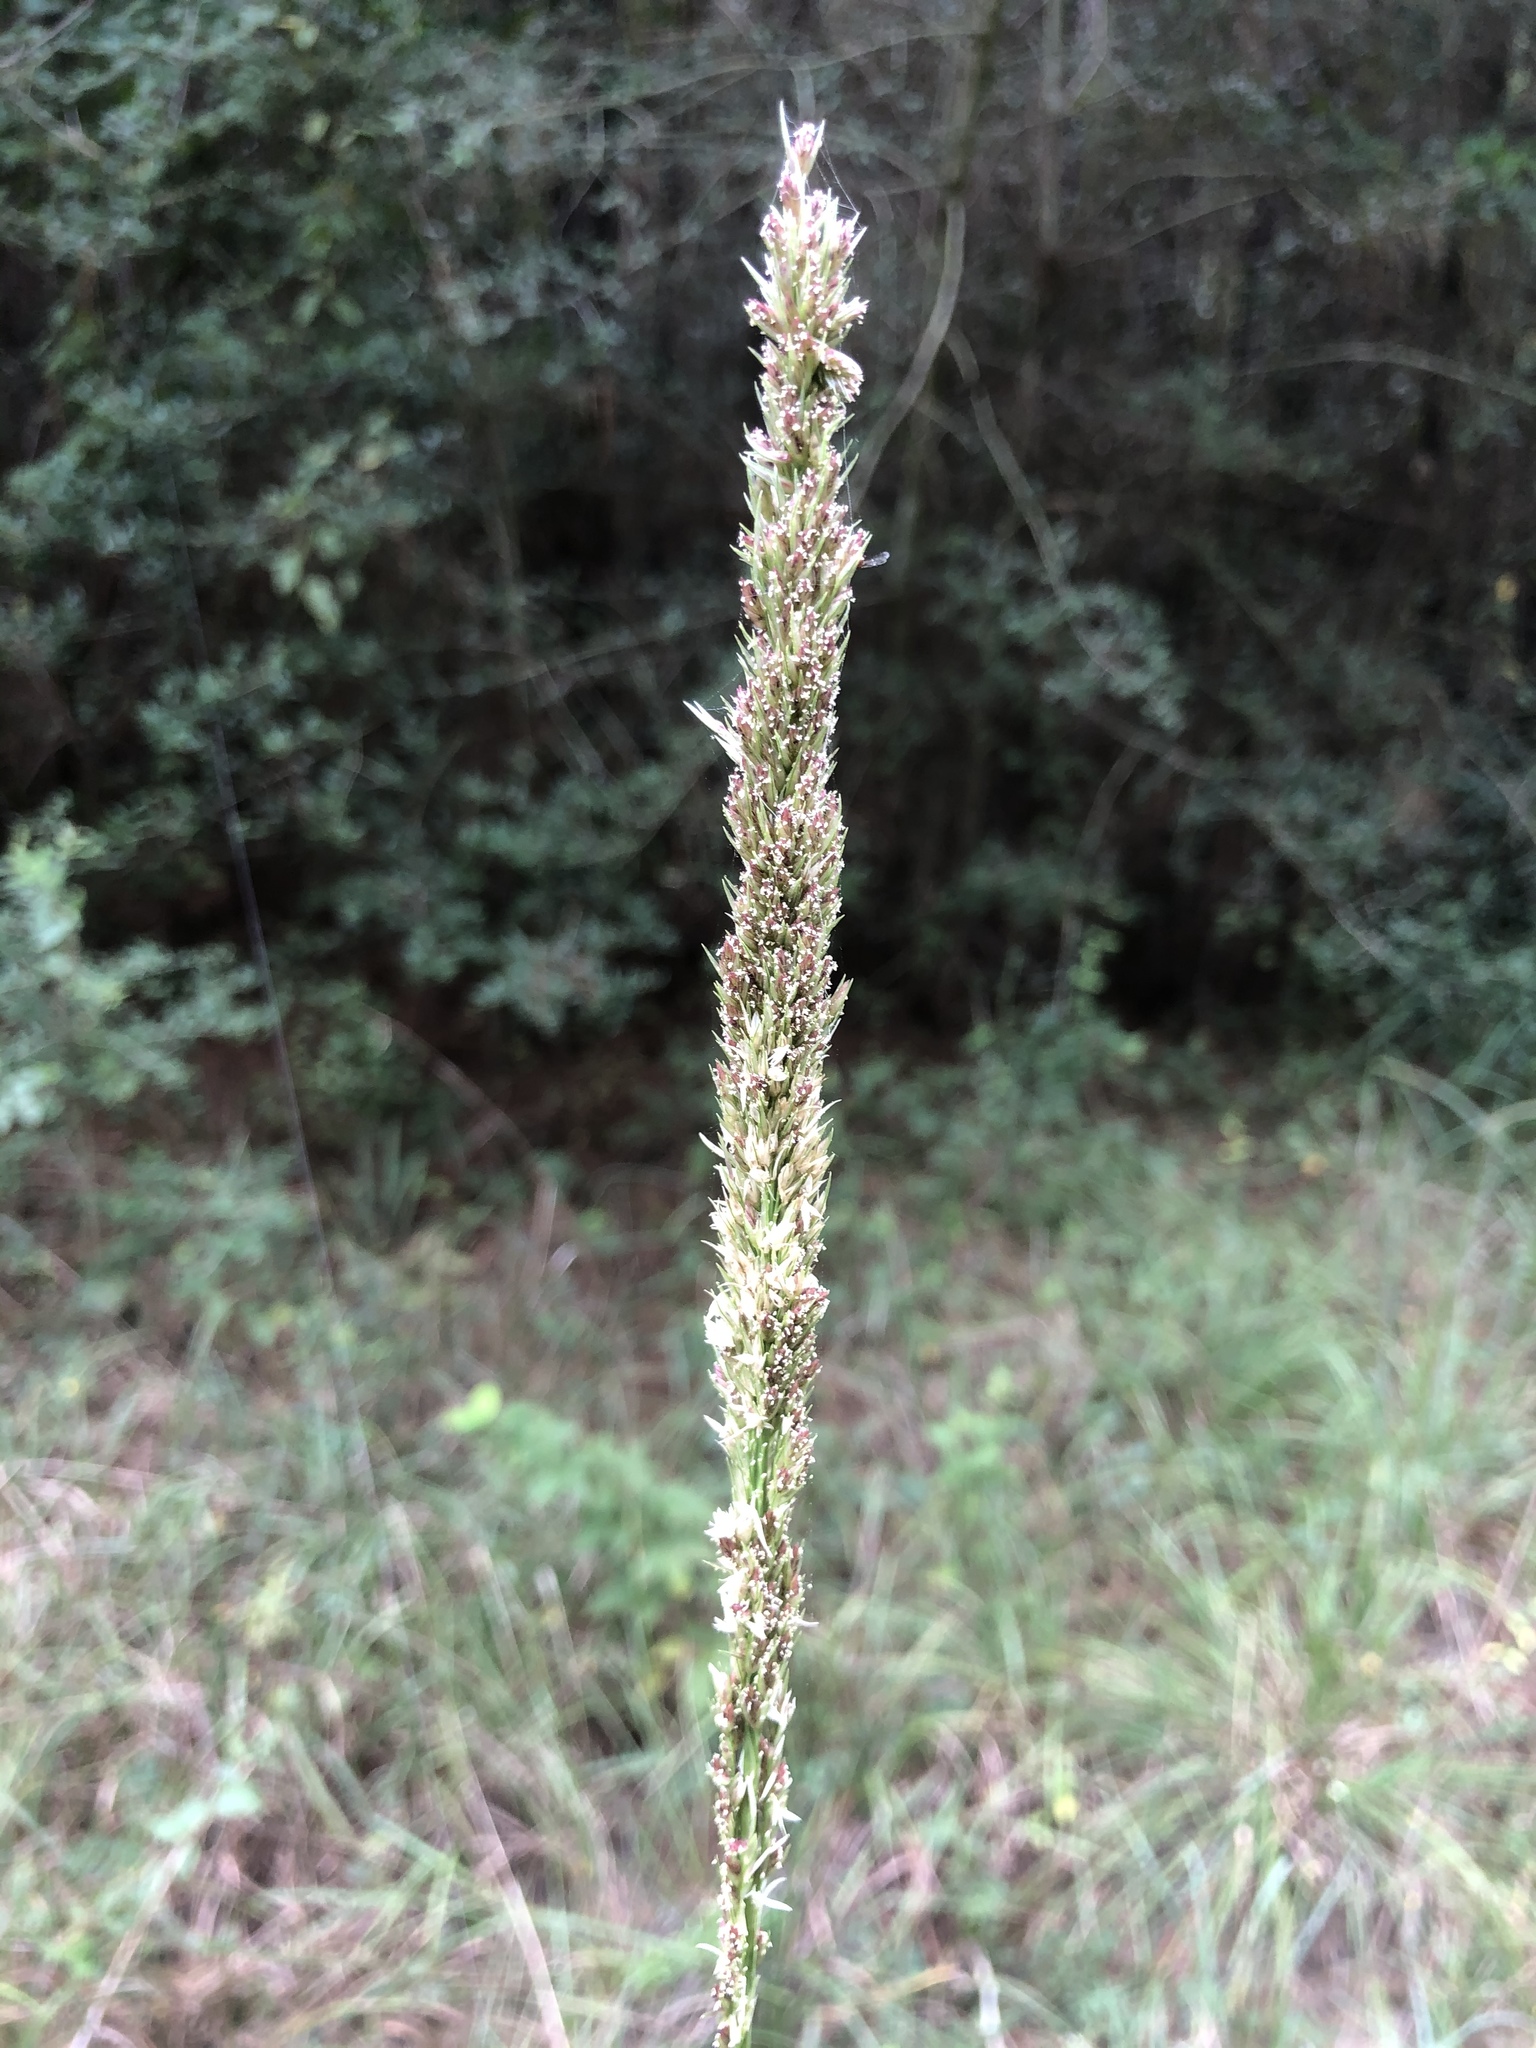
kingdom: Plantae
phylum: Tracheophyta
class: Liliopsida
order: Poales
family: Poaceae
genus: Tridens
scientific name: Tridens strictus
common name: Long-spike tridens
